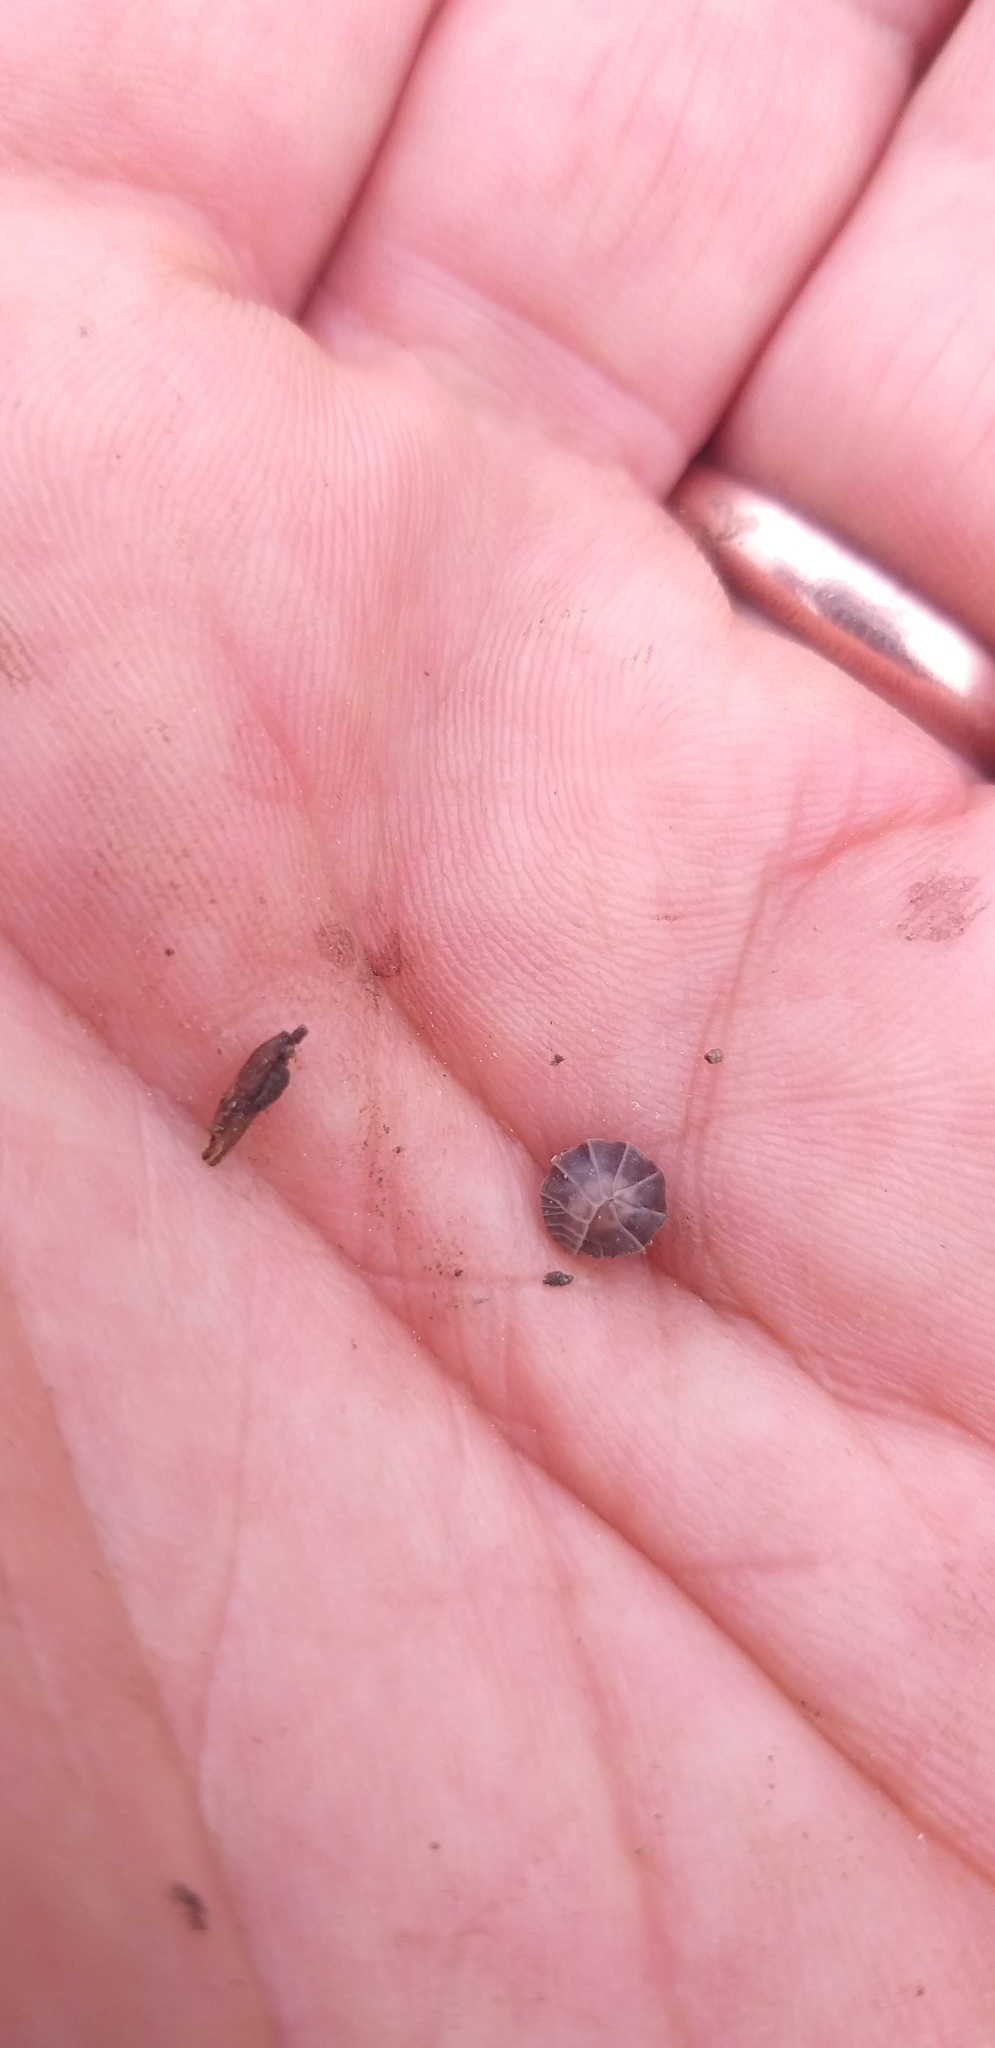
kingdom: Animalia
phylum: Arthropoda
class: Malacostraca
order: Isopoda
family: Armadillidiidae
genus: Eluma
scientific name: Eluma caelata
